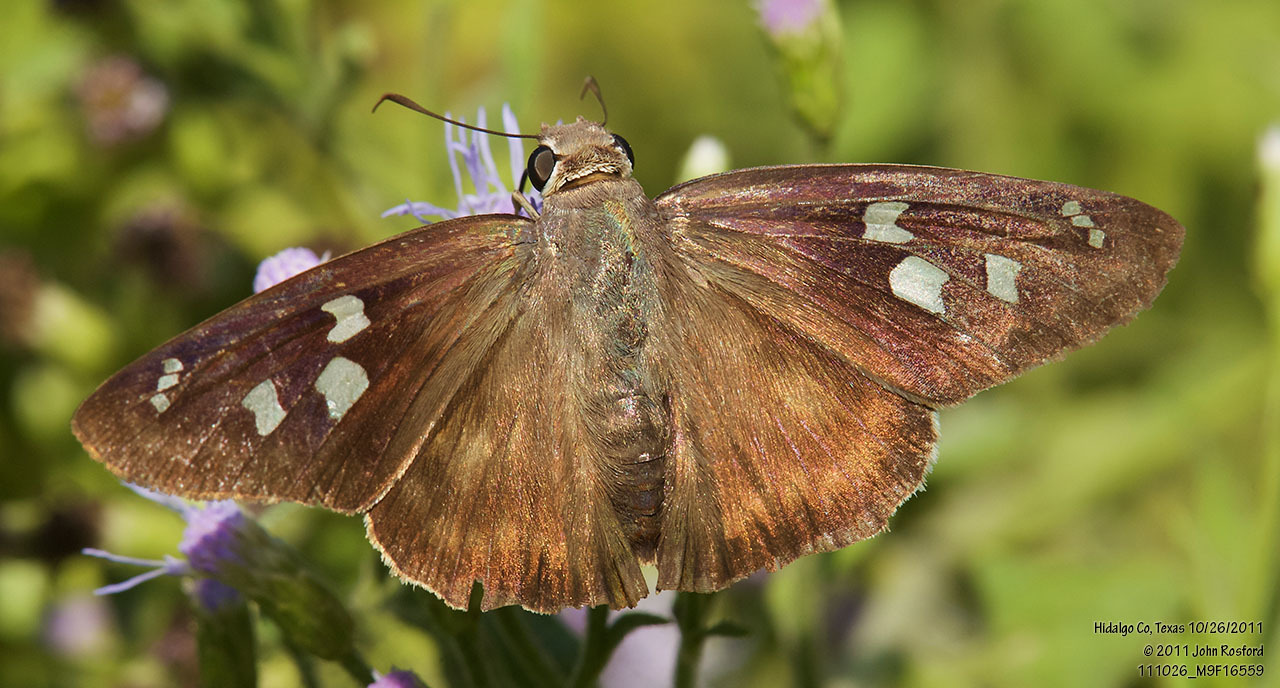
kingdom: Animalia
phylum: Arthropoda
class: Insecta
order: Lepidoptera
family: Hesperiidae
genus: Polygonus
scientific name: Polygonus leo
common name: Hammoch skipper
